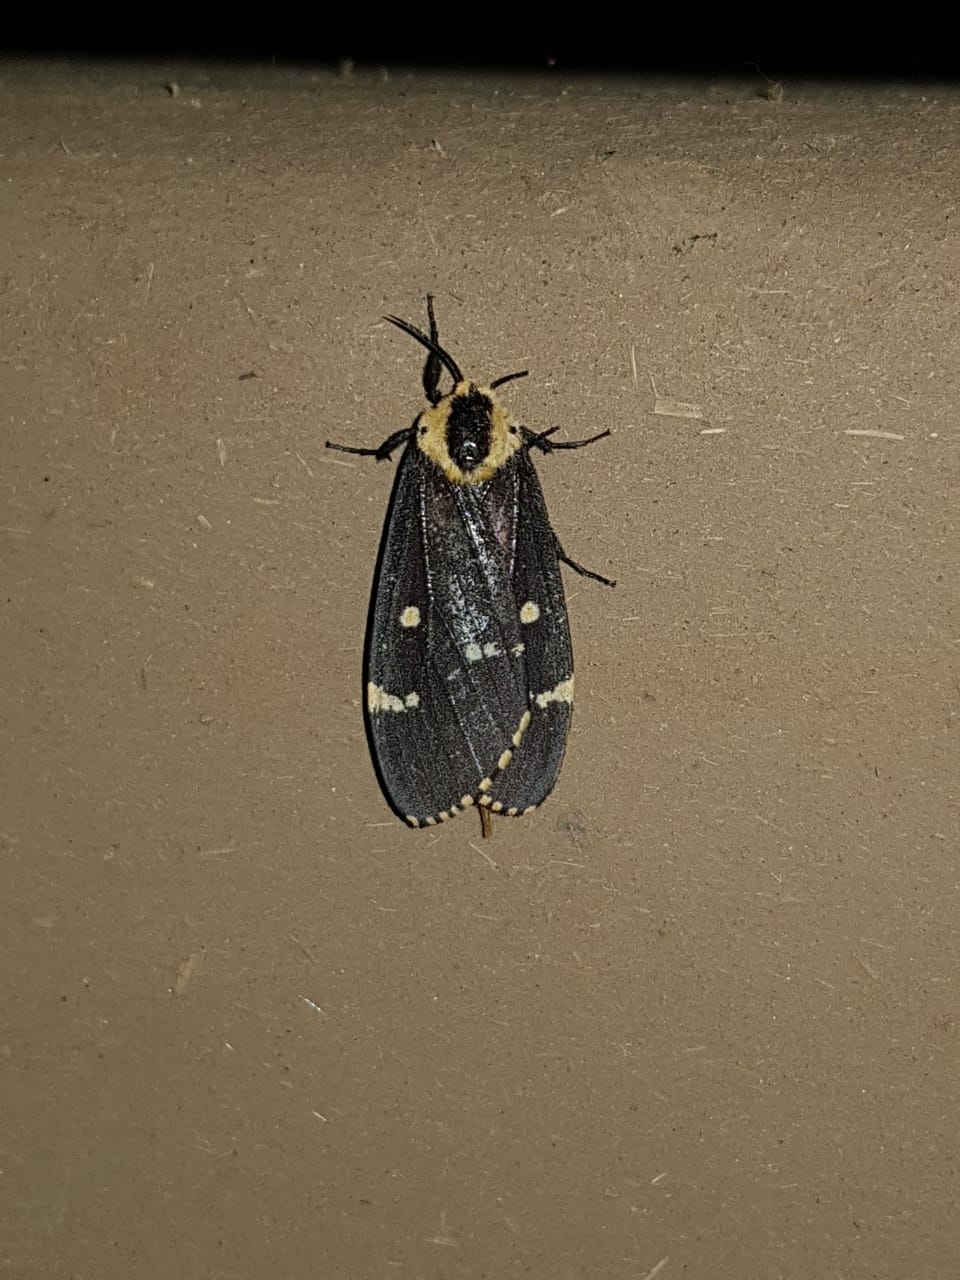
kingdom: Animalia
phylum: Arthropoda
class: Insecta
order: Lepidoptera
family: Erebidae
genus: Lymantria
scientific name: Lymantria semicincta
